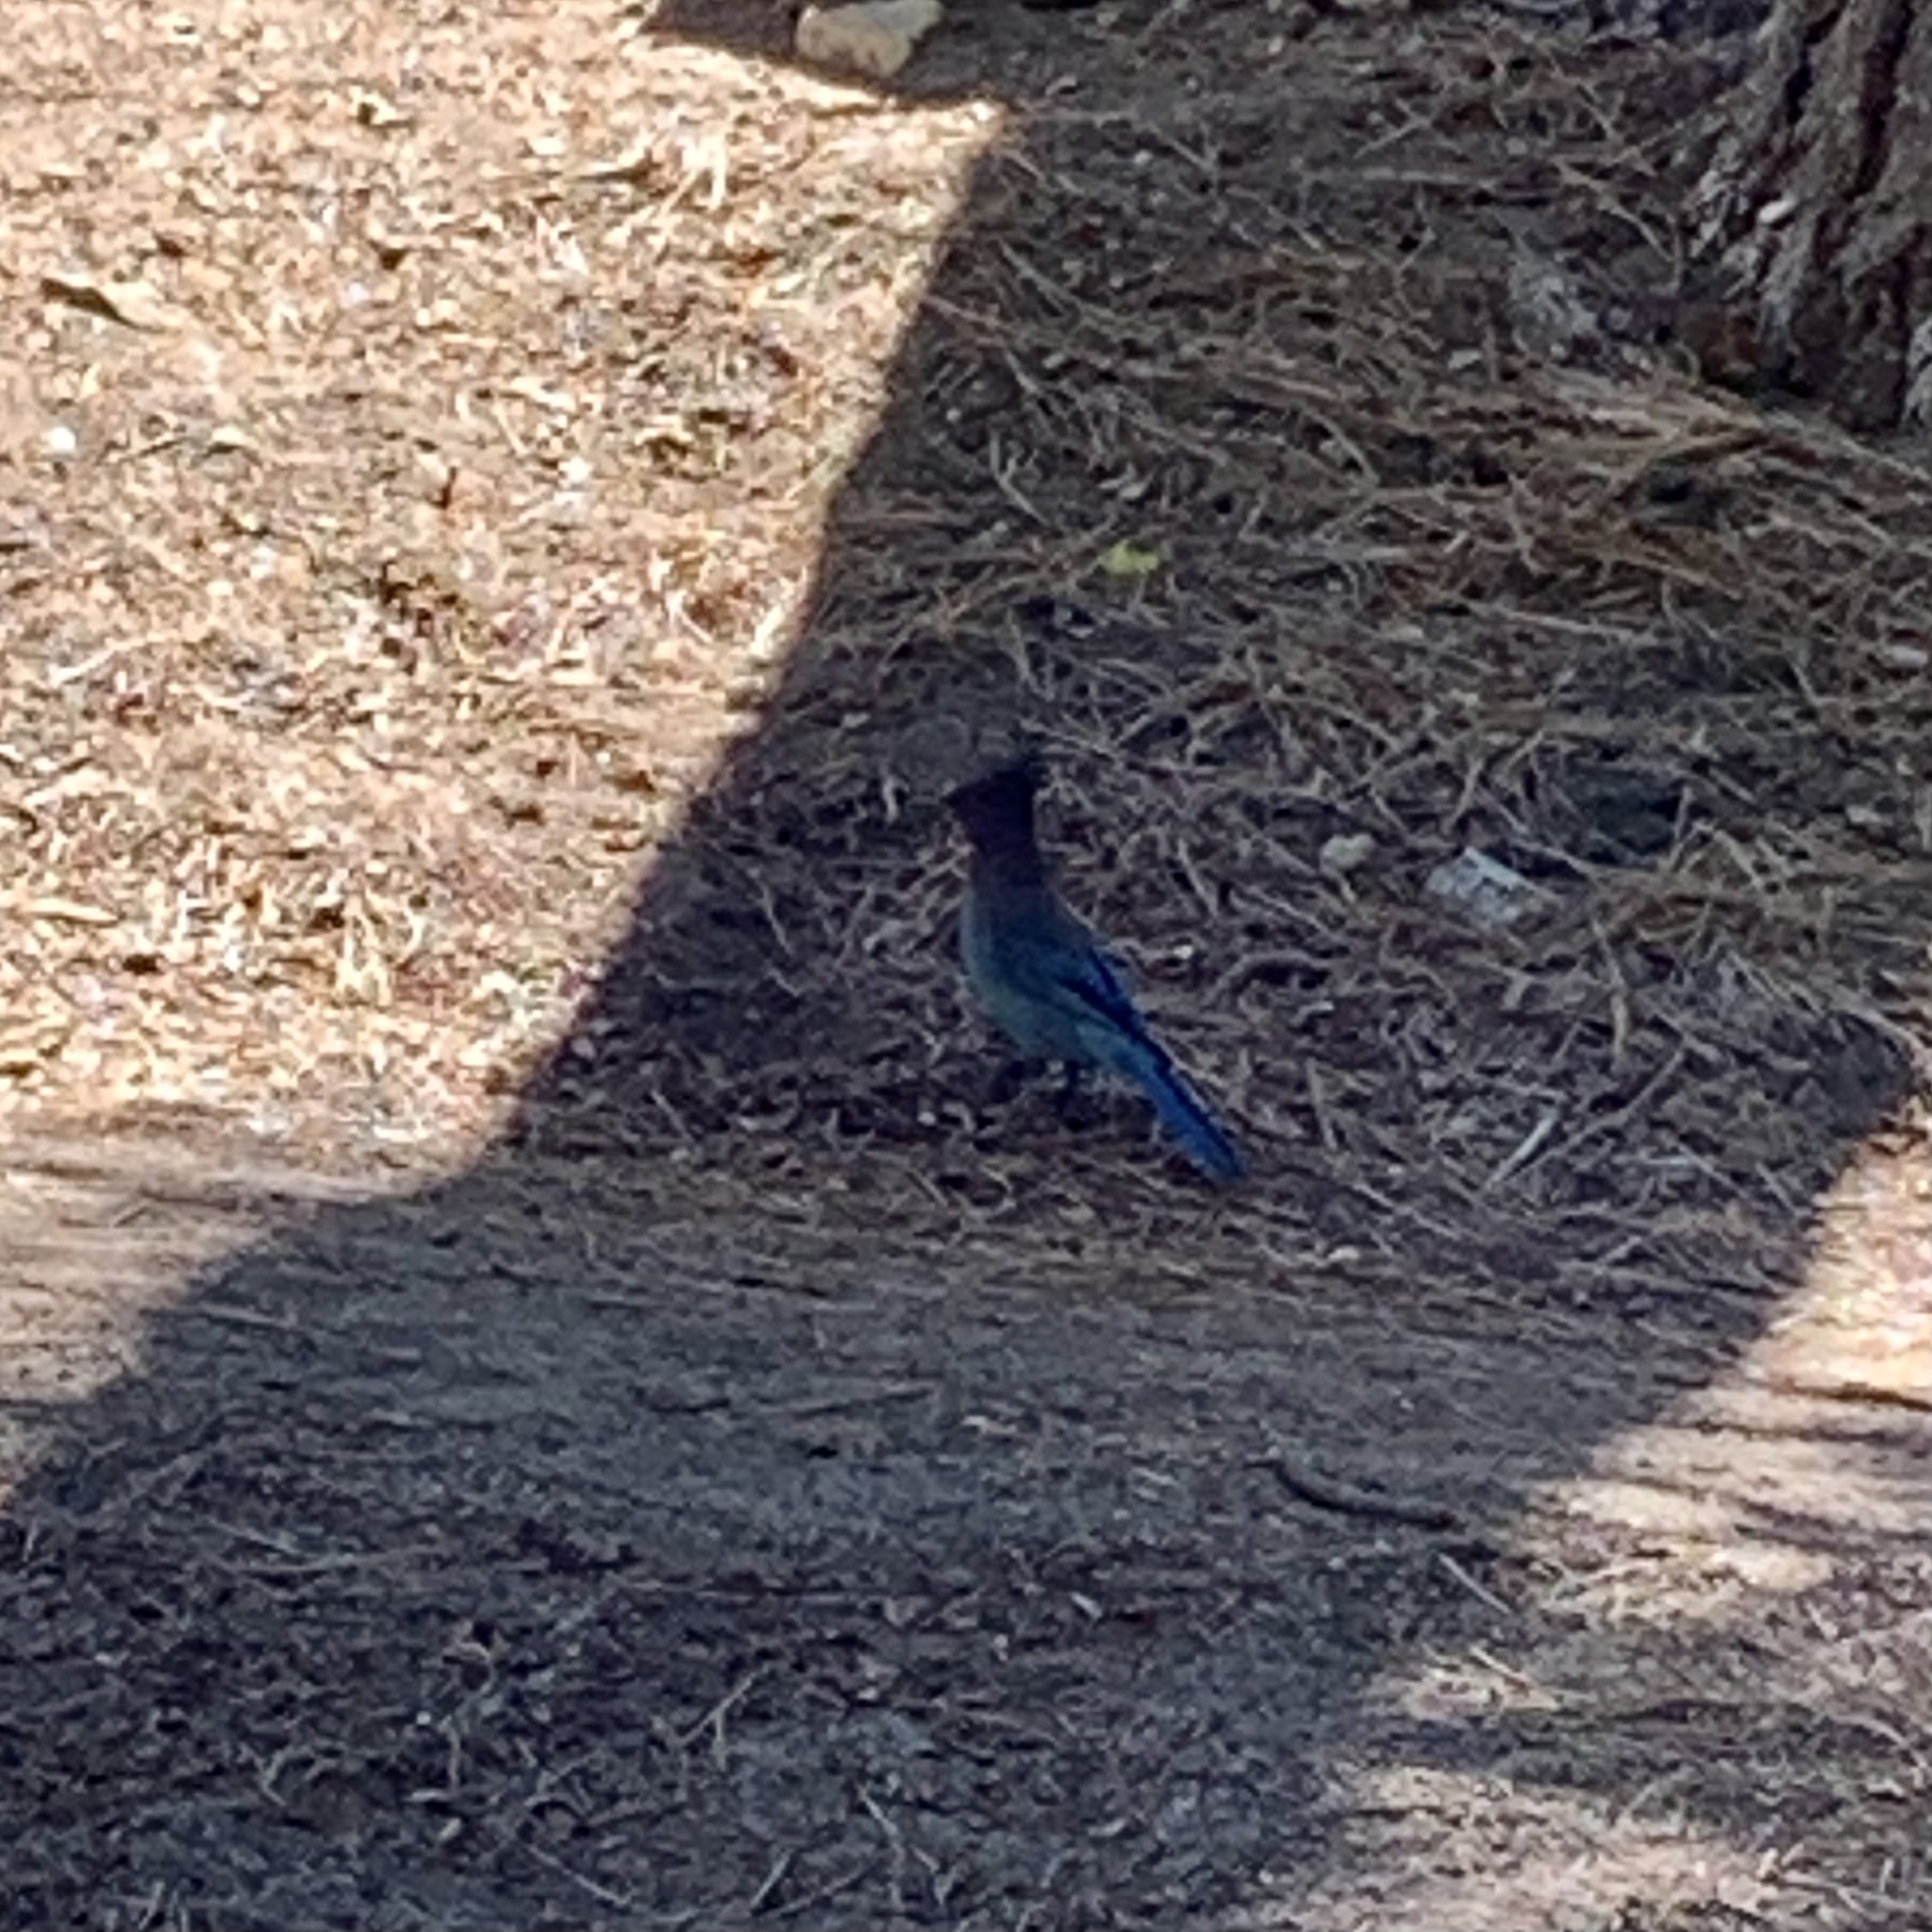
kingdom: Animalia
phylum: Chordata
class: Aves
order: Passeriformes
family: Corvidae
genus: Cyanocitta
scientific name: Cyanocitta stelleri
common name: Steller's jay
